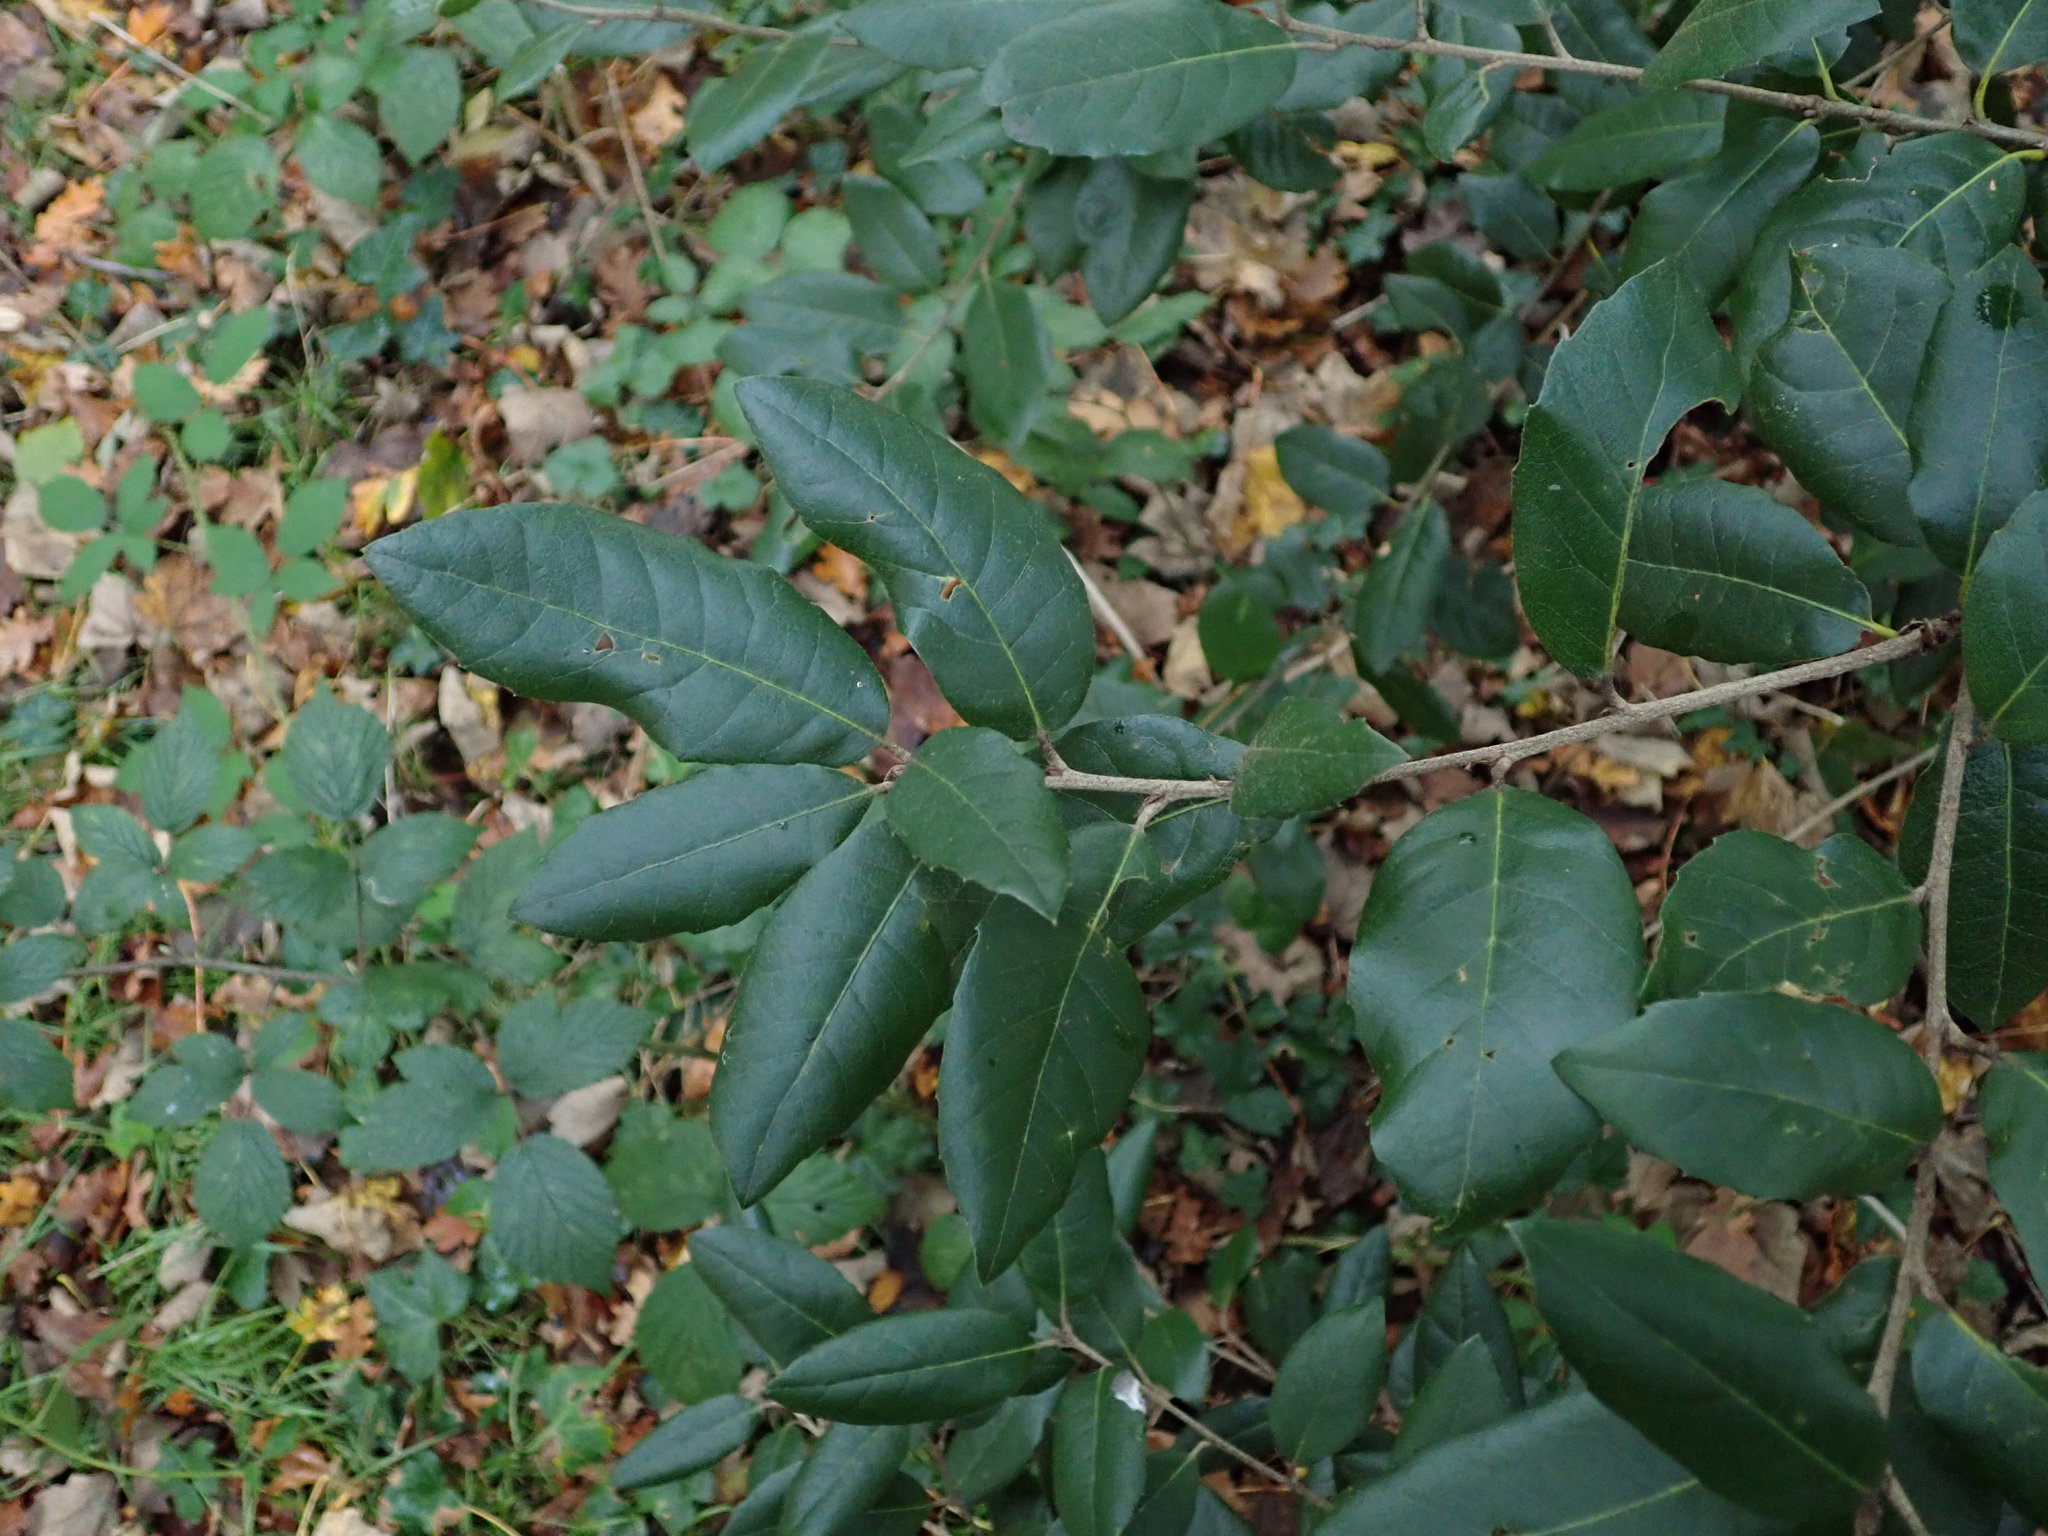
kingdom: Plantae
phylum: Tracheophyta
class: Magnoliopsida
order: Fagales
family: Fagaceae
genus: Quercus
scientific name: Quercus ilex
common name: Evergreen oak
